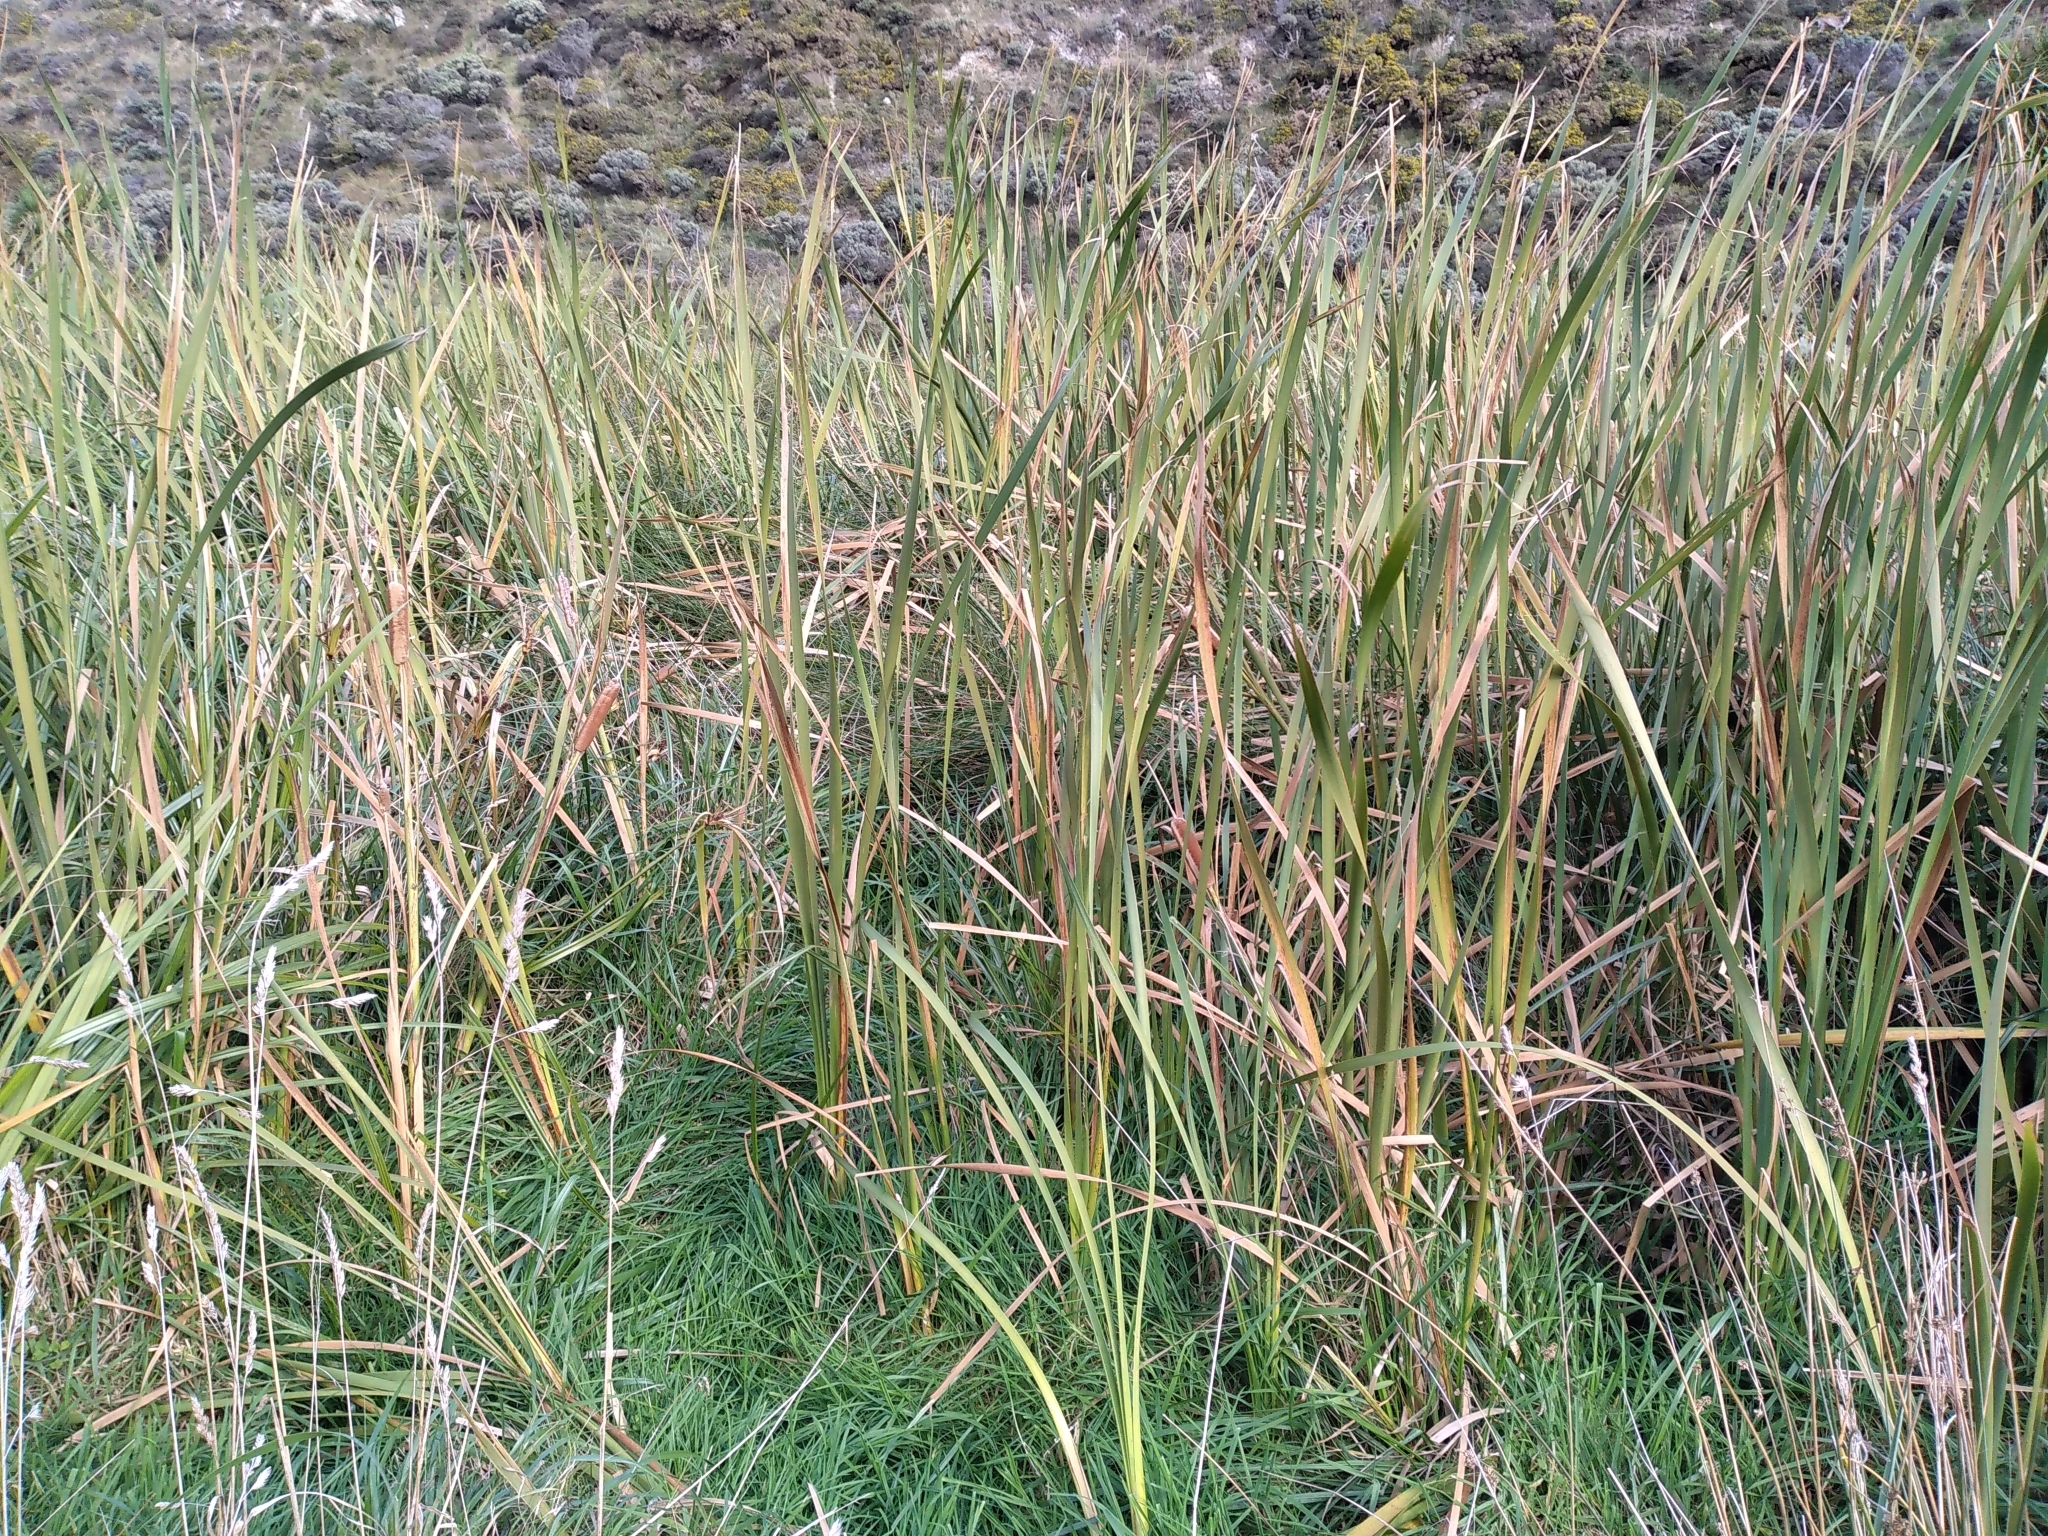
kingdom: Plantae
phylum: Tracheophyta
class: Liliopsida
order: Poales
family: Typhaceae
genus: Typha
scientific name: Typha orientalis
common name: Bullrush
